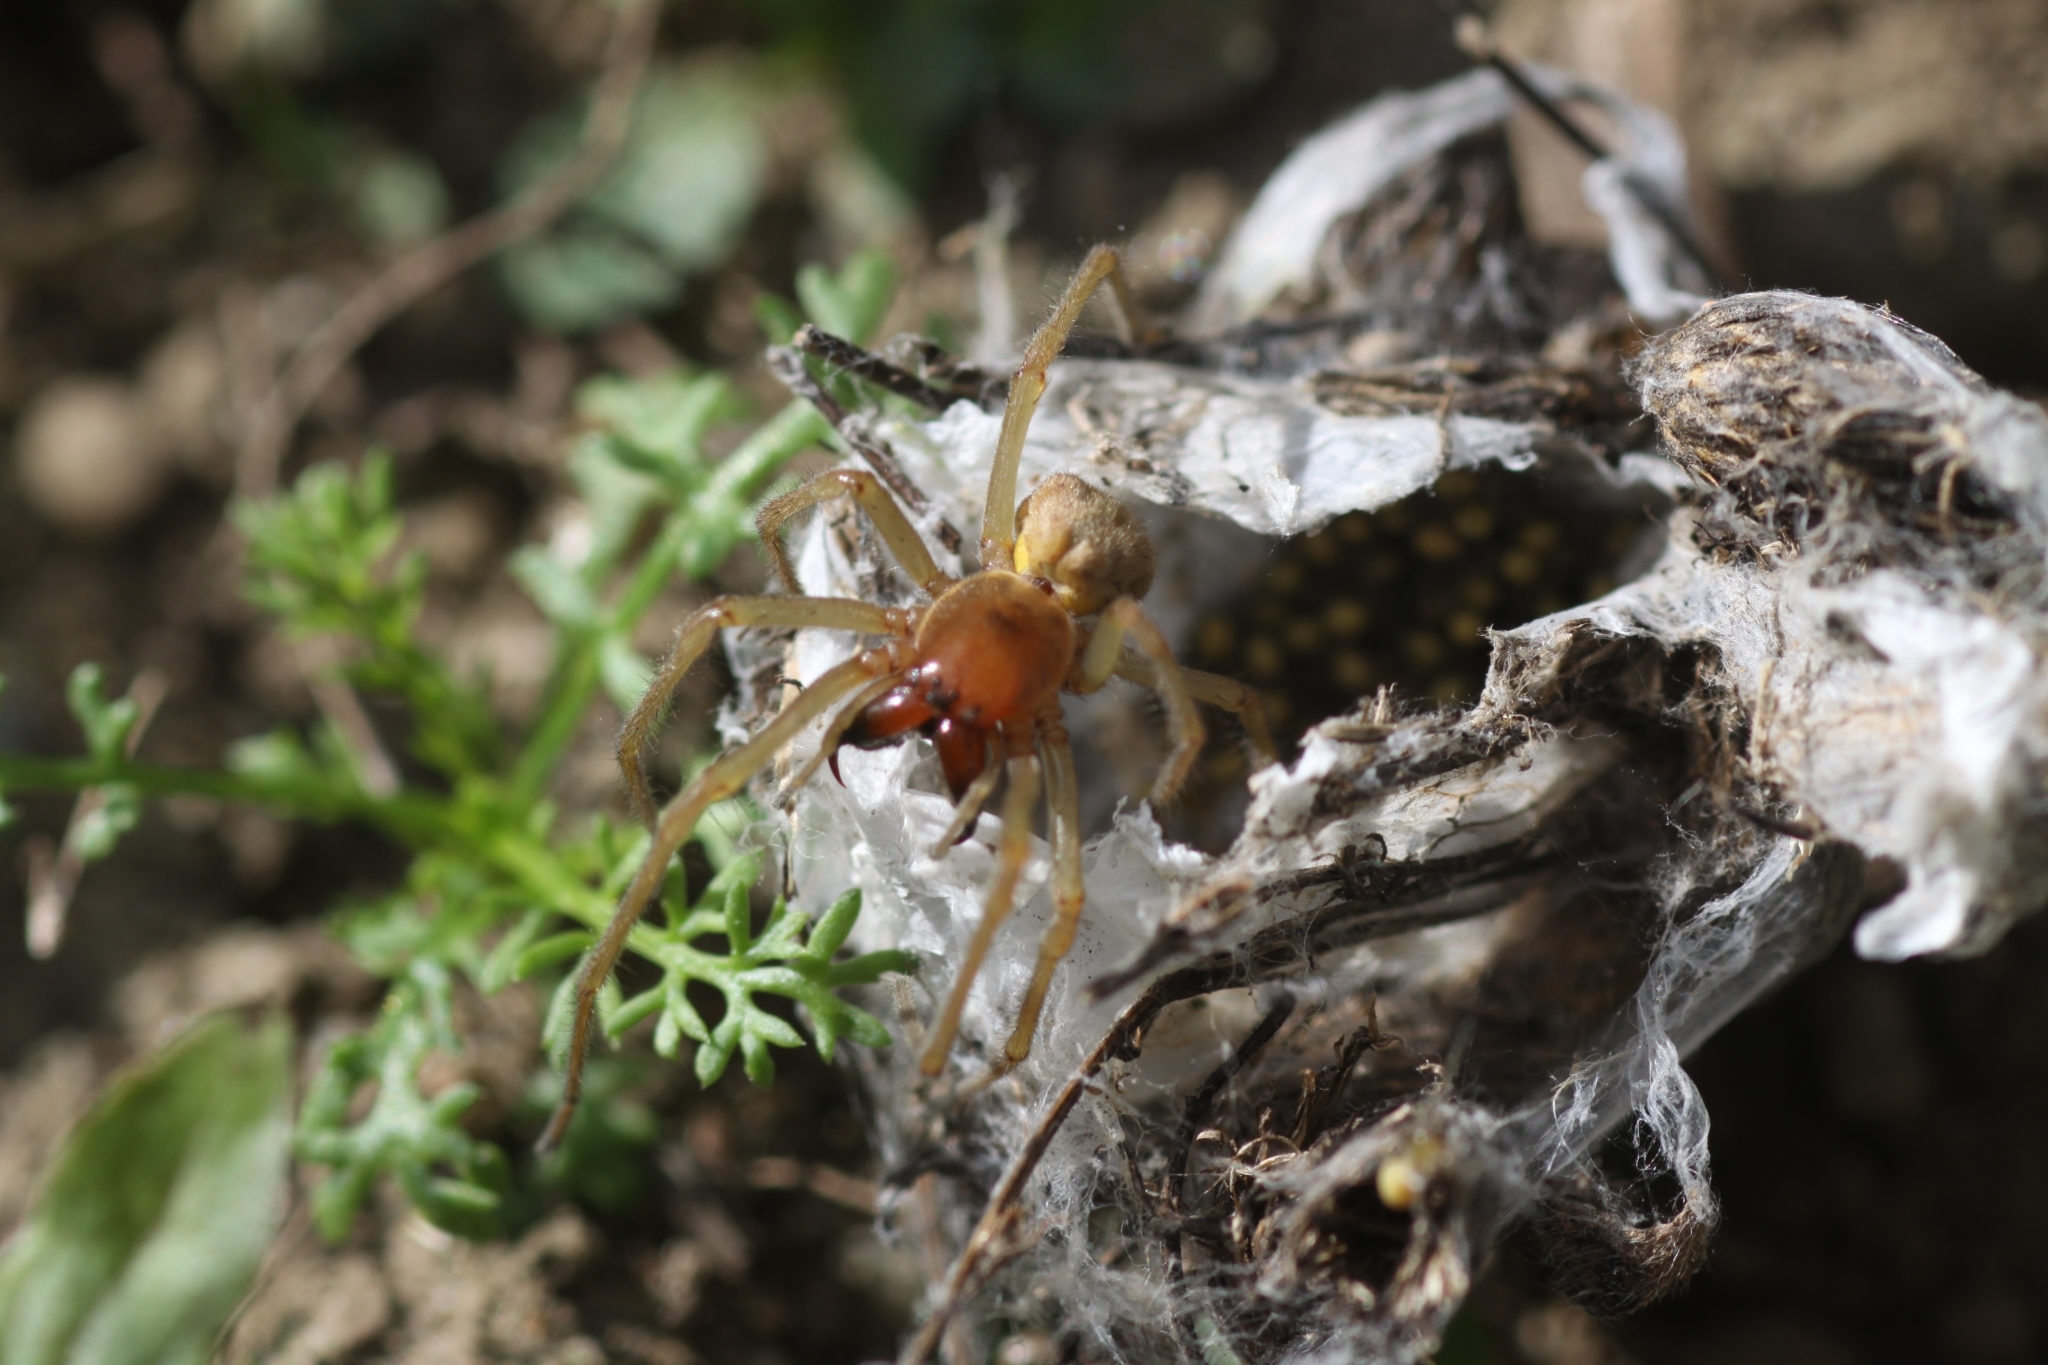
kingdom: Animalia
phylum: Arthropoda
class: Arachnida
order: Araneae
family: Cheiracanthiidae
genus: Cheiracanthium
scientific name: Cheiracanthium punctorium
